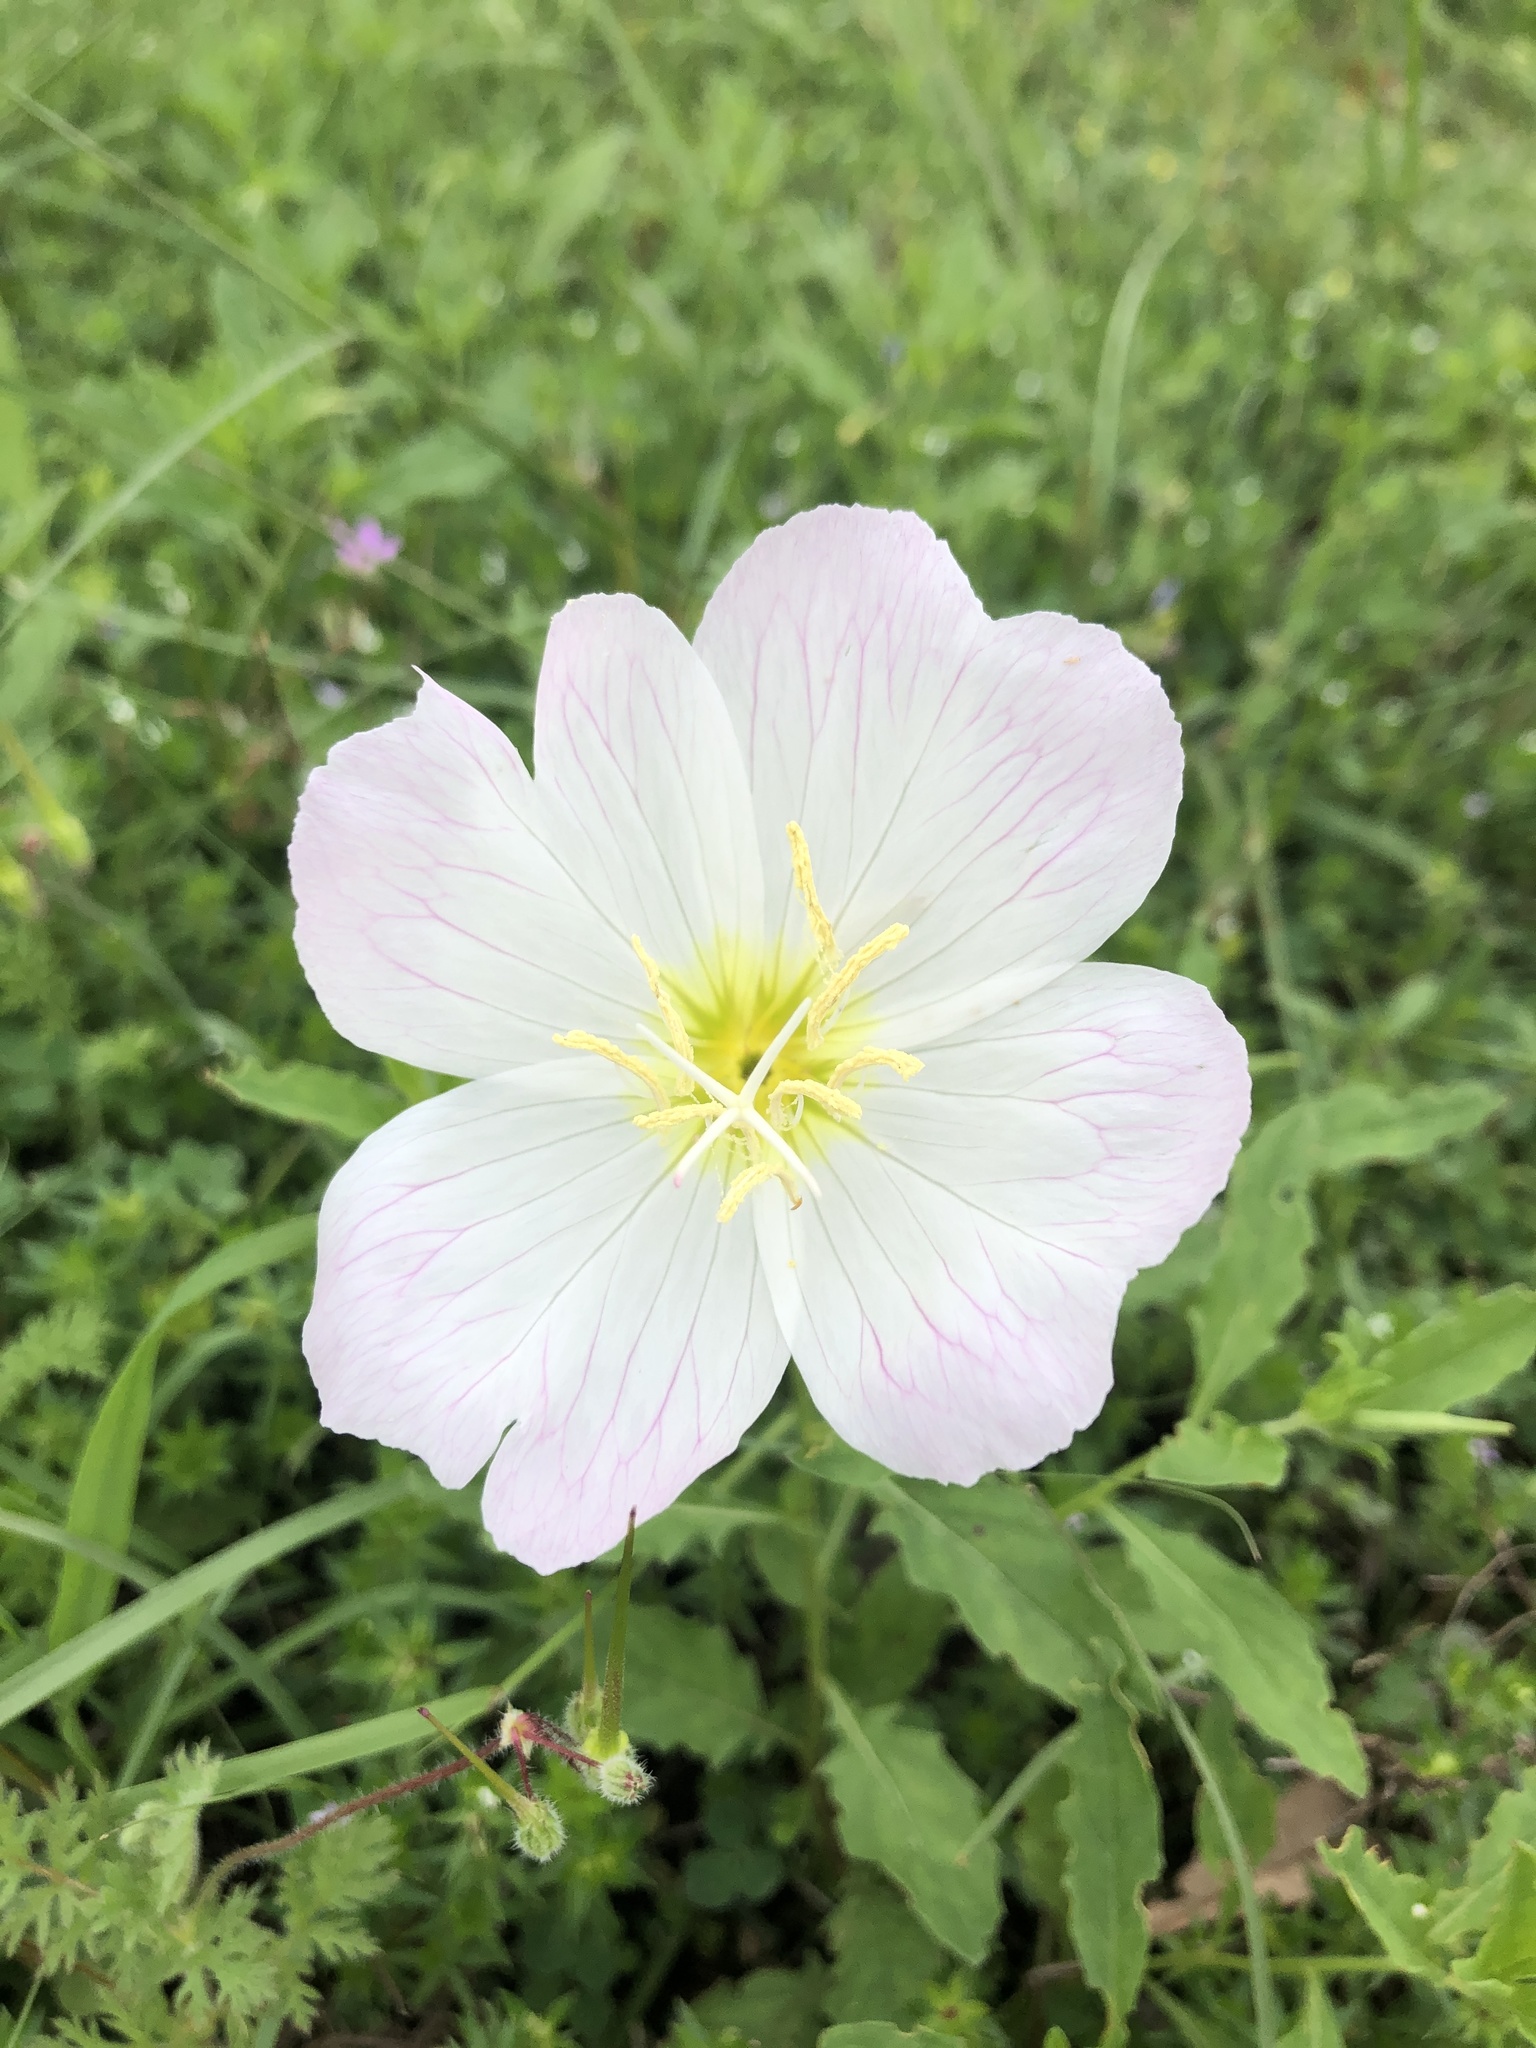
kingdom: Plantae
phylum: Tracheophyta
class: Magnoliopsida
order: Myrtales
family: Onagraceae
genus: Oenothera
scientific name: Oenothera speciosa
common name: White evening-primrose
